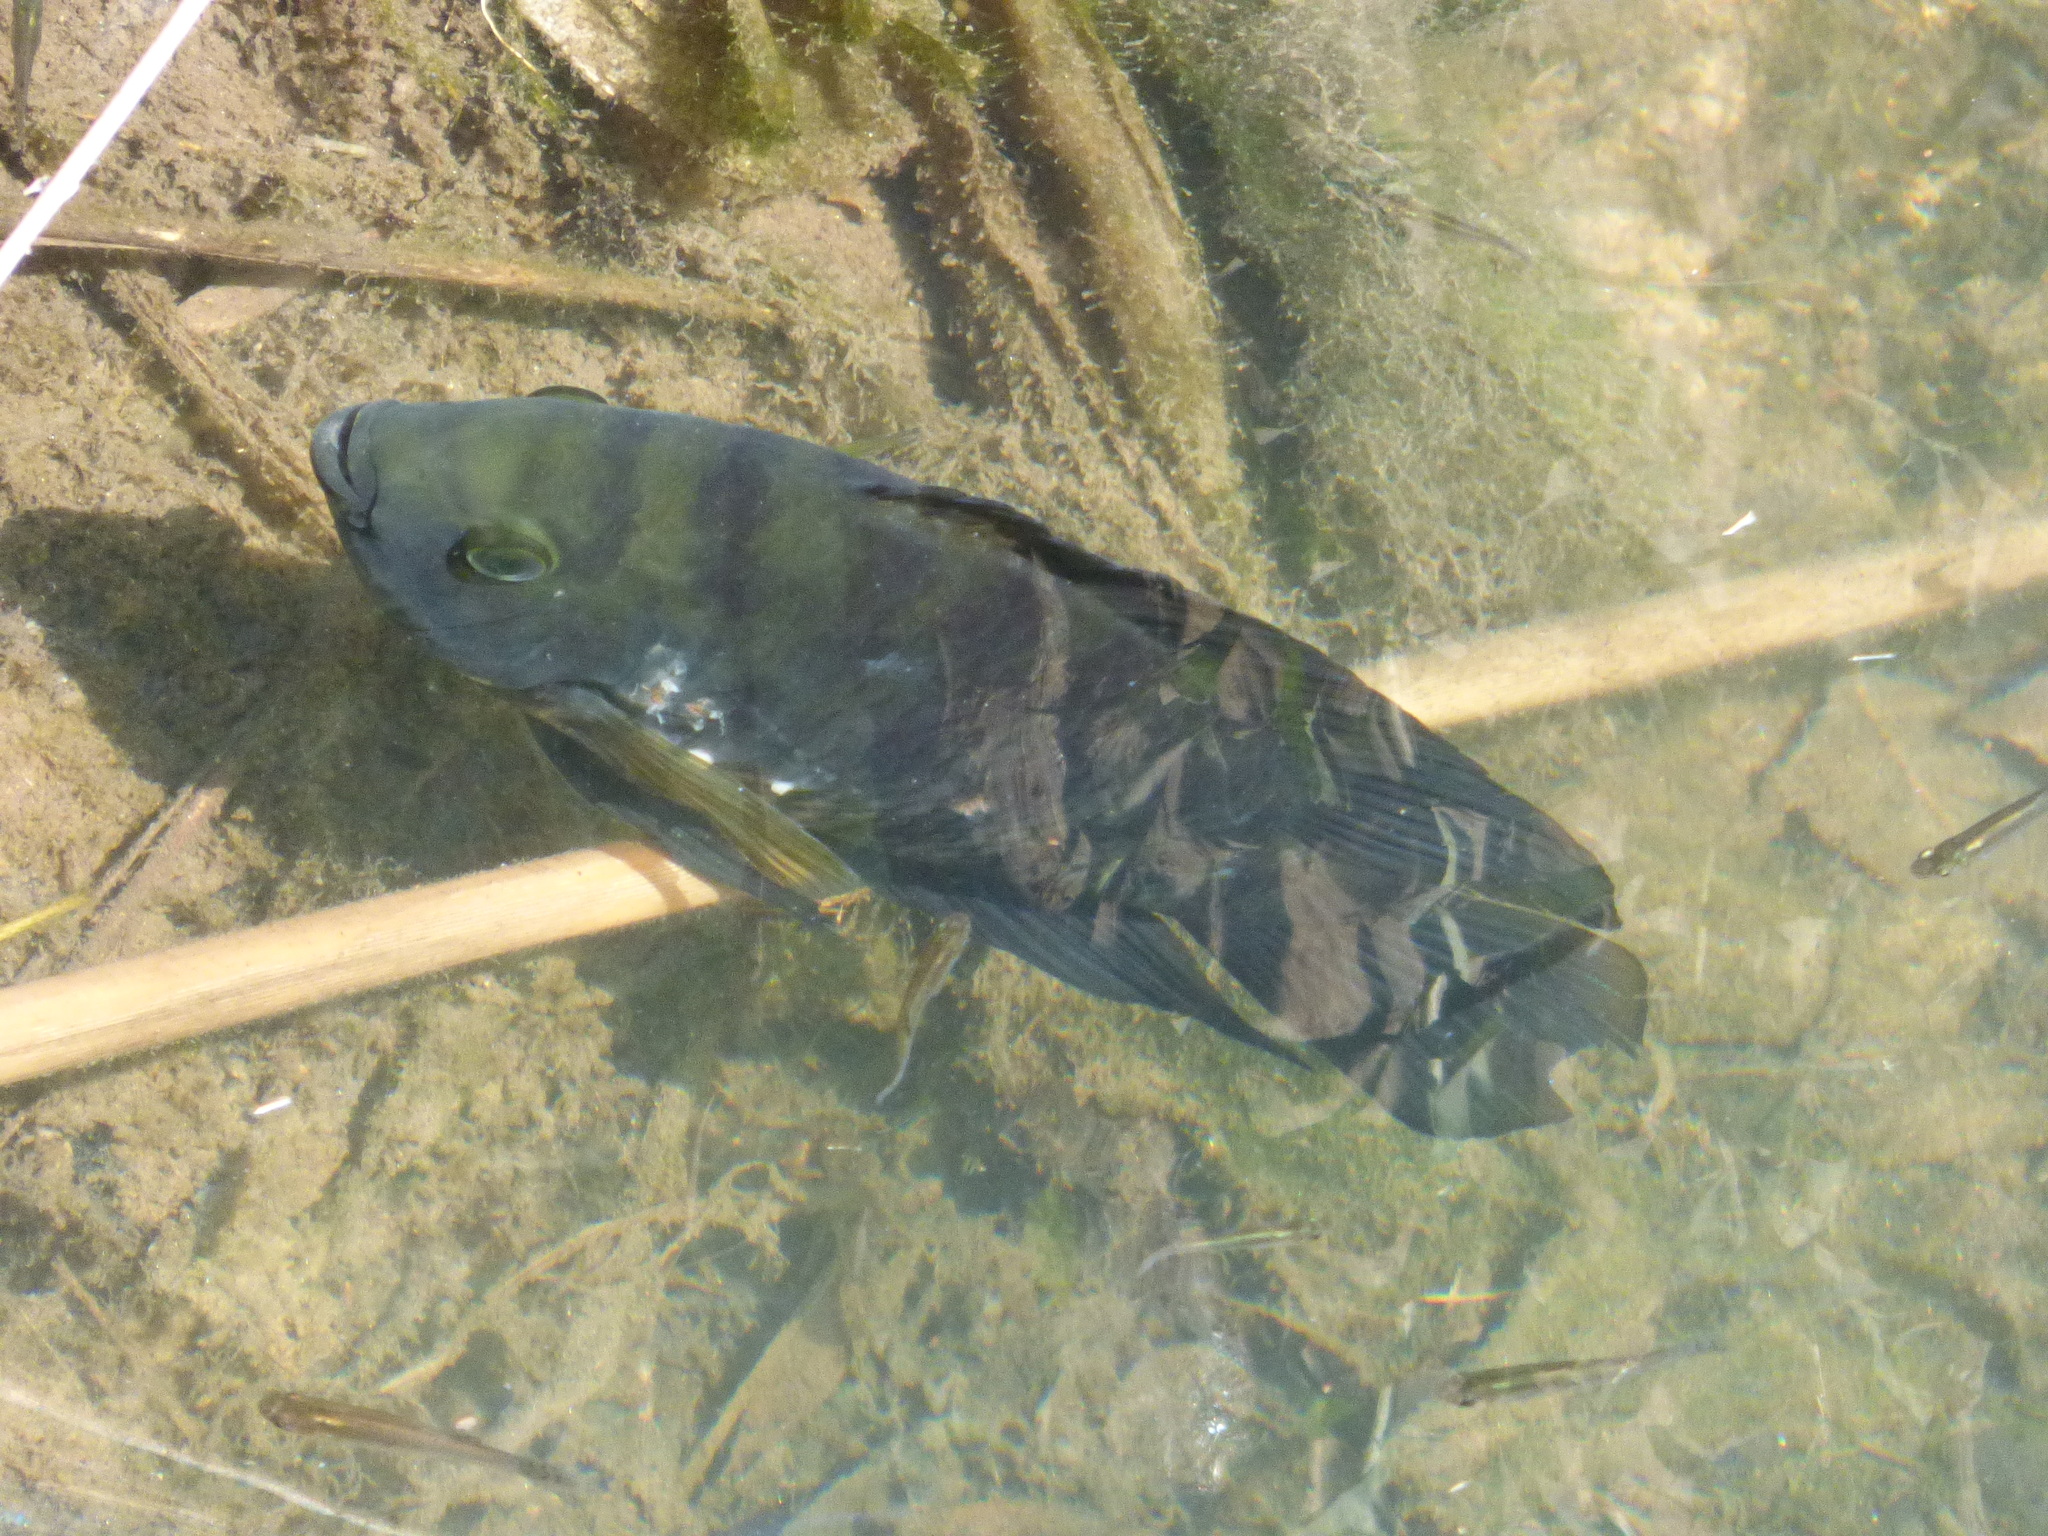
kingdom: Animalia
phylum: Chordata
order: Perciformes
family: Cichlidae
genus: Australoheros
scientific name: Australoheros facetus
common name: Chameleon cichlid
